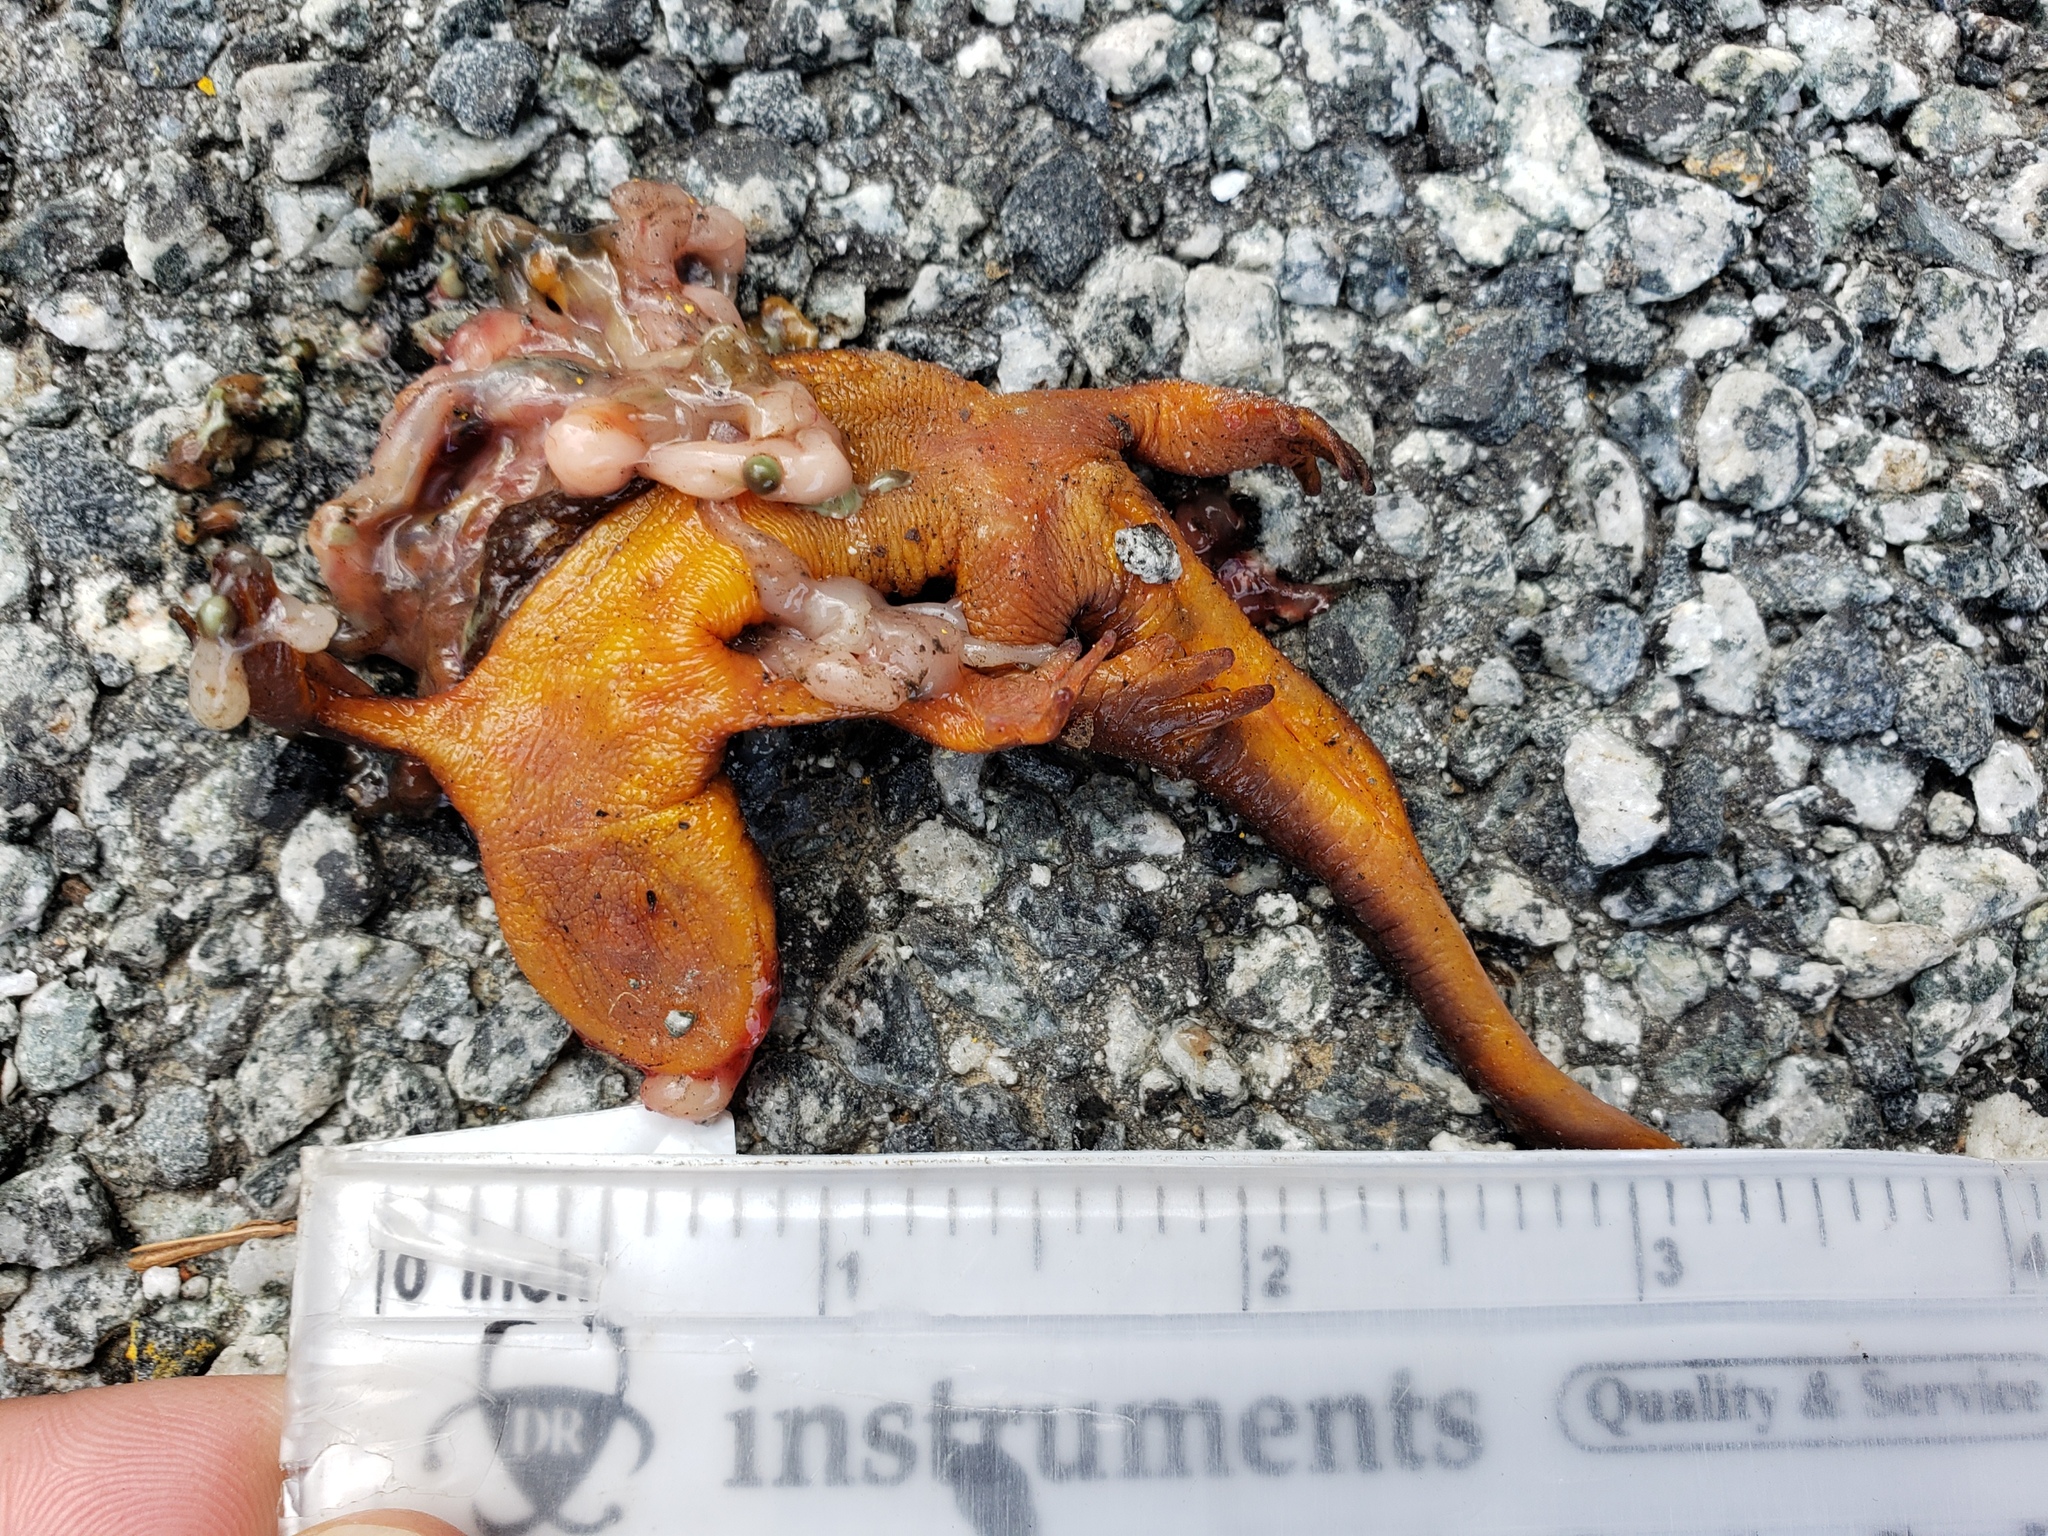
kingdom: Animalia
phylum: Chordata
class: Amphibia
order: Caudata
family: Salamandridae
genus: Taricha
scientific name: Taricha
